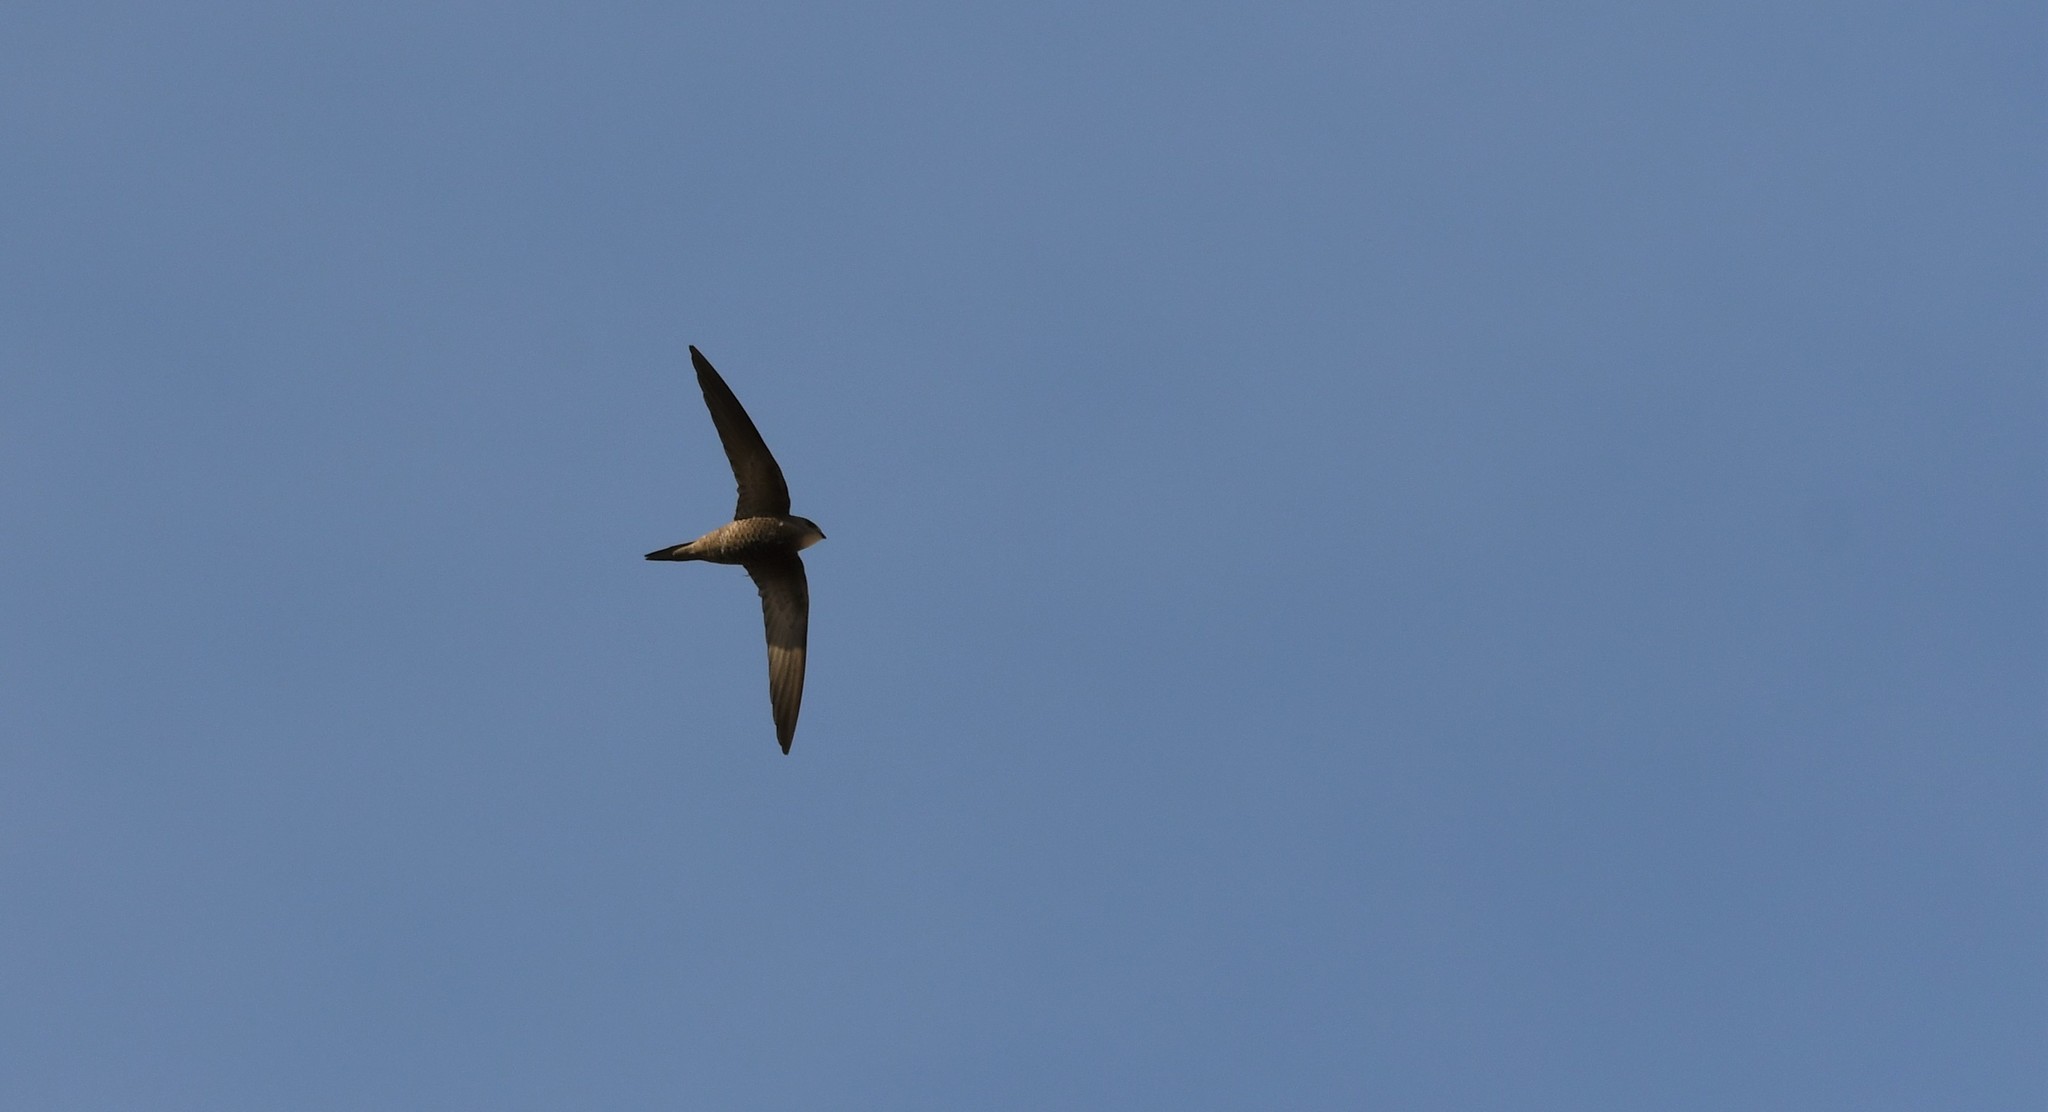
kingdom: Animalia
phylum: Chordata
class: Aves
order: Apodiformes
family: Apodidae
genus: Apus
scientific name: Apus pallidus
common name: Pallid swift
